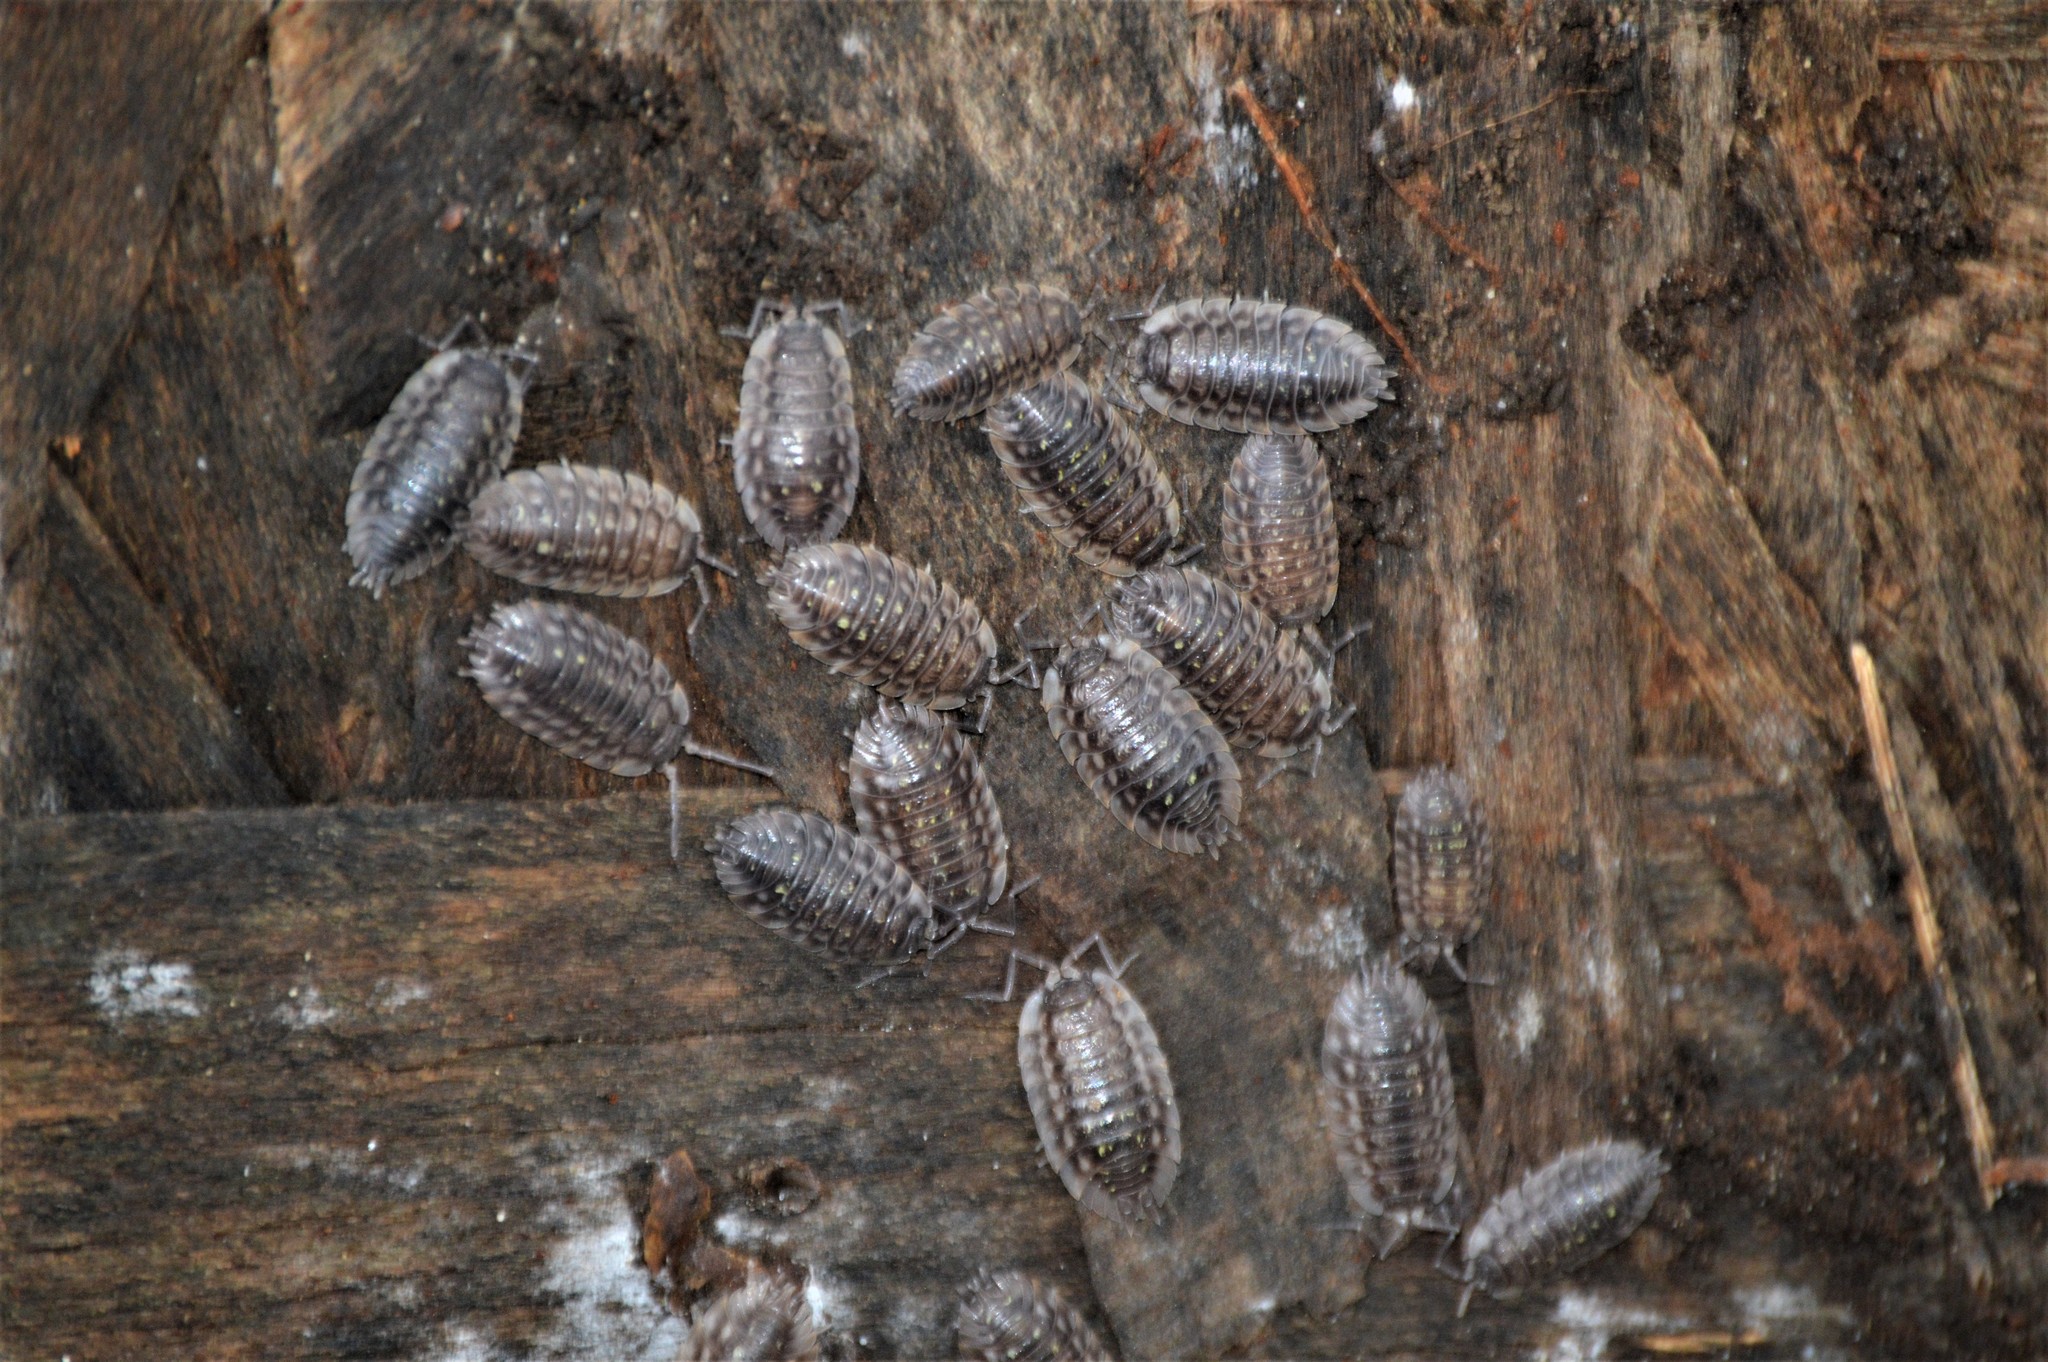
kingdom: Animalia
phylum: Arthropoda
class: Malacostraca
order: Isopoda
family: Oniscidae
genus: Oniscus
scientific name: Oniscus asellus
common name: Common shiny woodlouse
